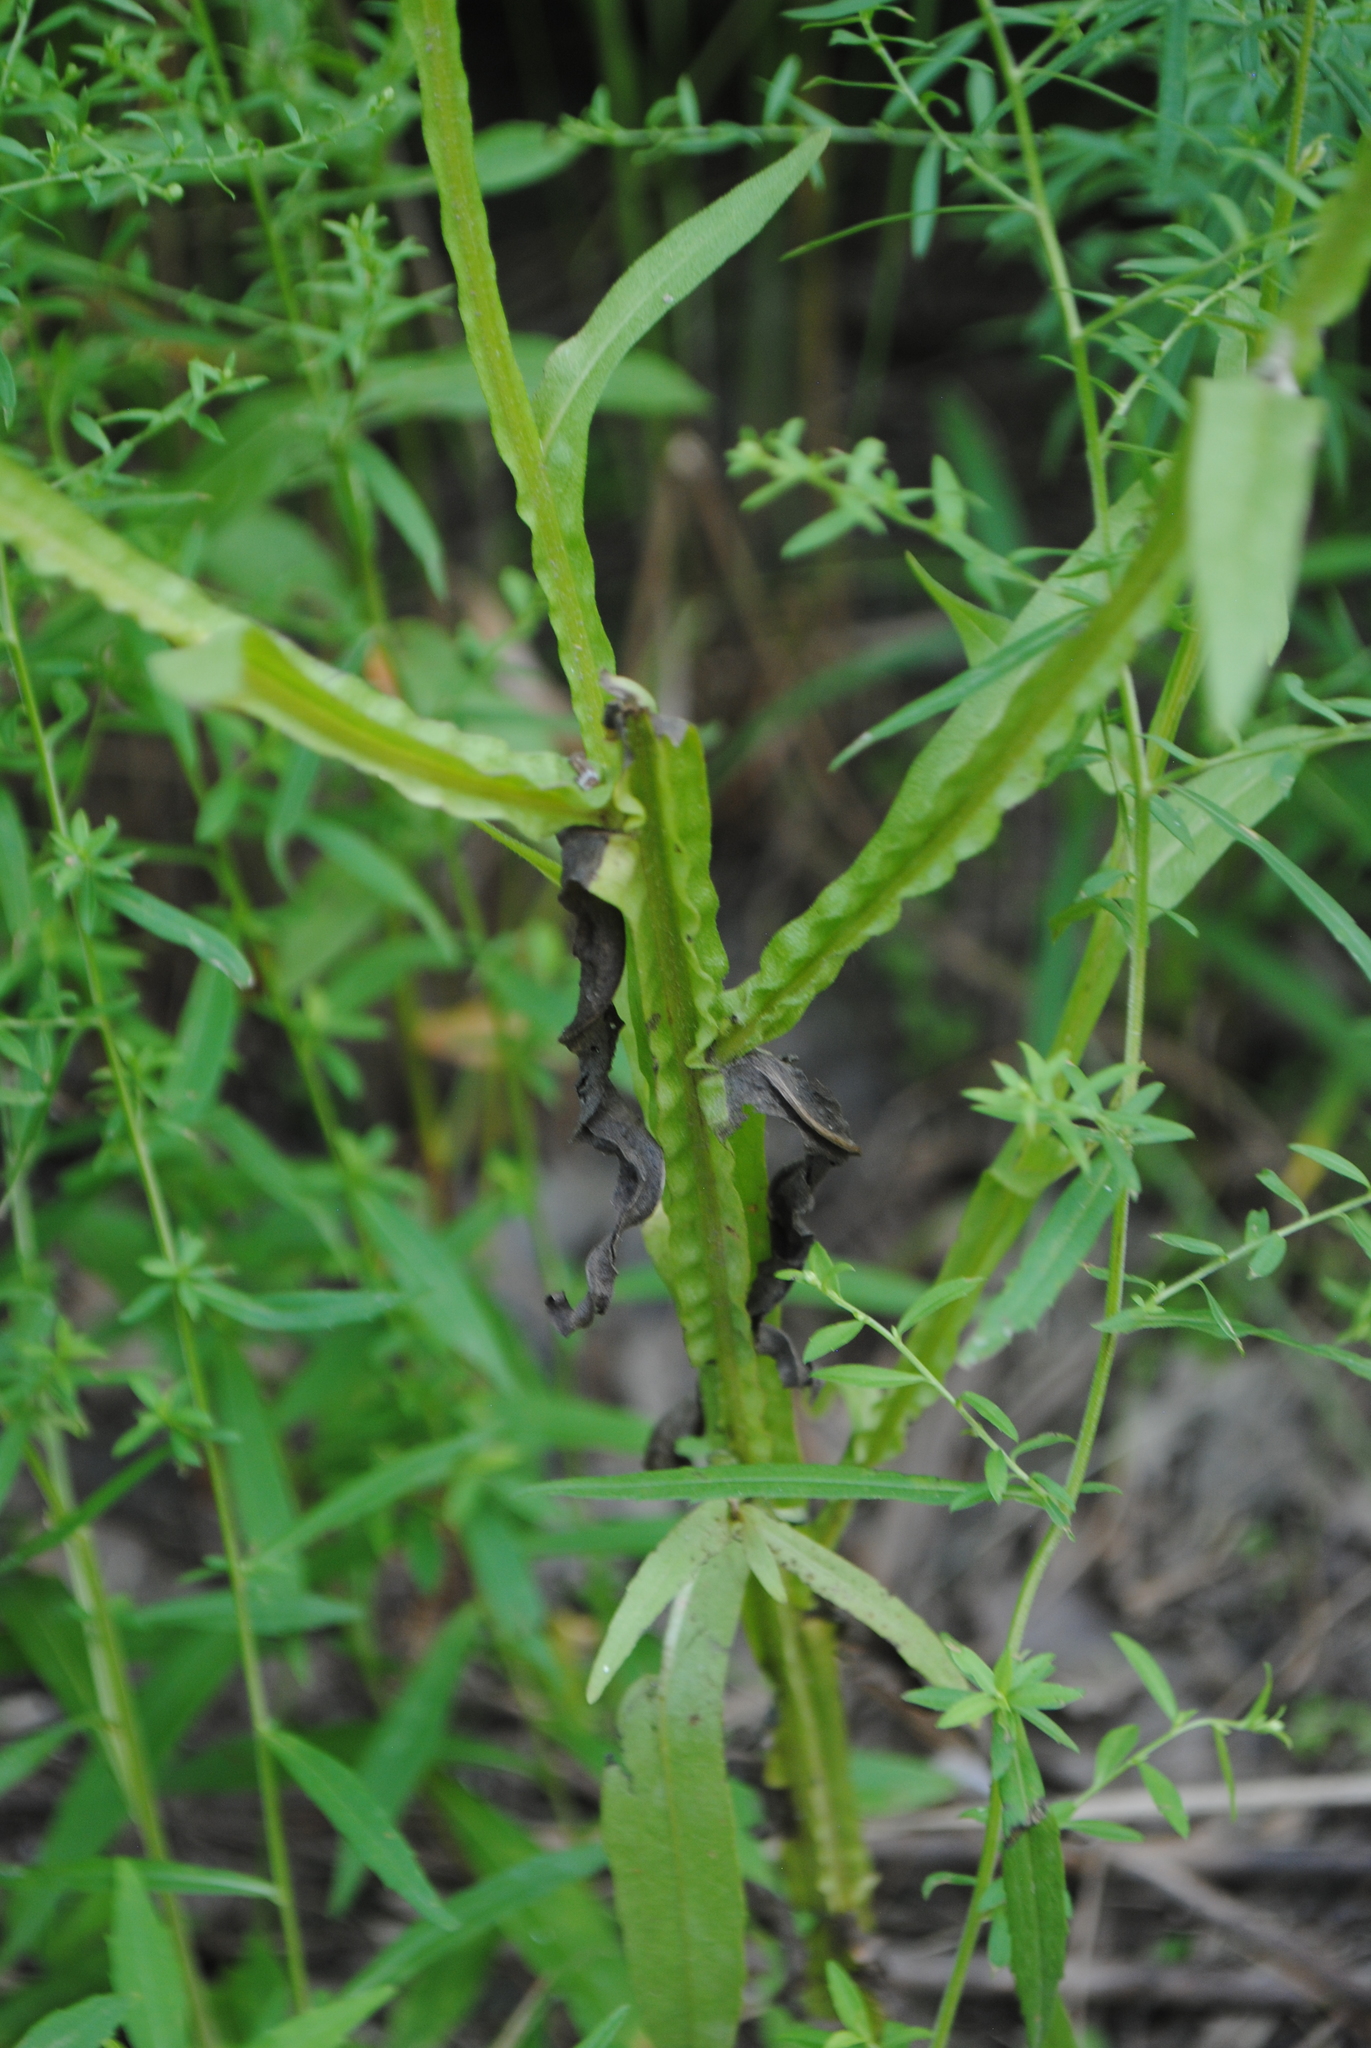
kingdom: Plantae
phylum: Tracheophyta
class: Magnoliopsida
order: Asterales
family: Asteraceae
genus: Helenium
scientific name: Helenium flexuosum
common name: Naked-flowered sneezeweed
